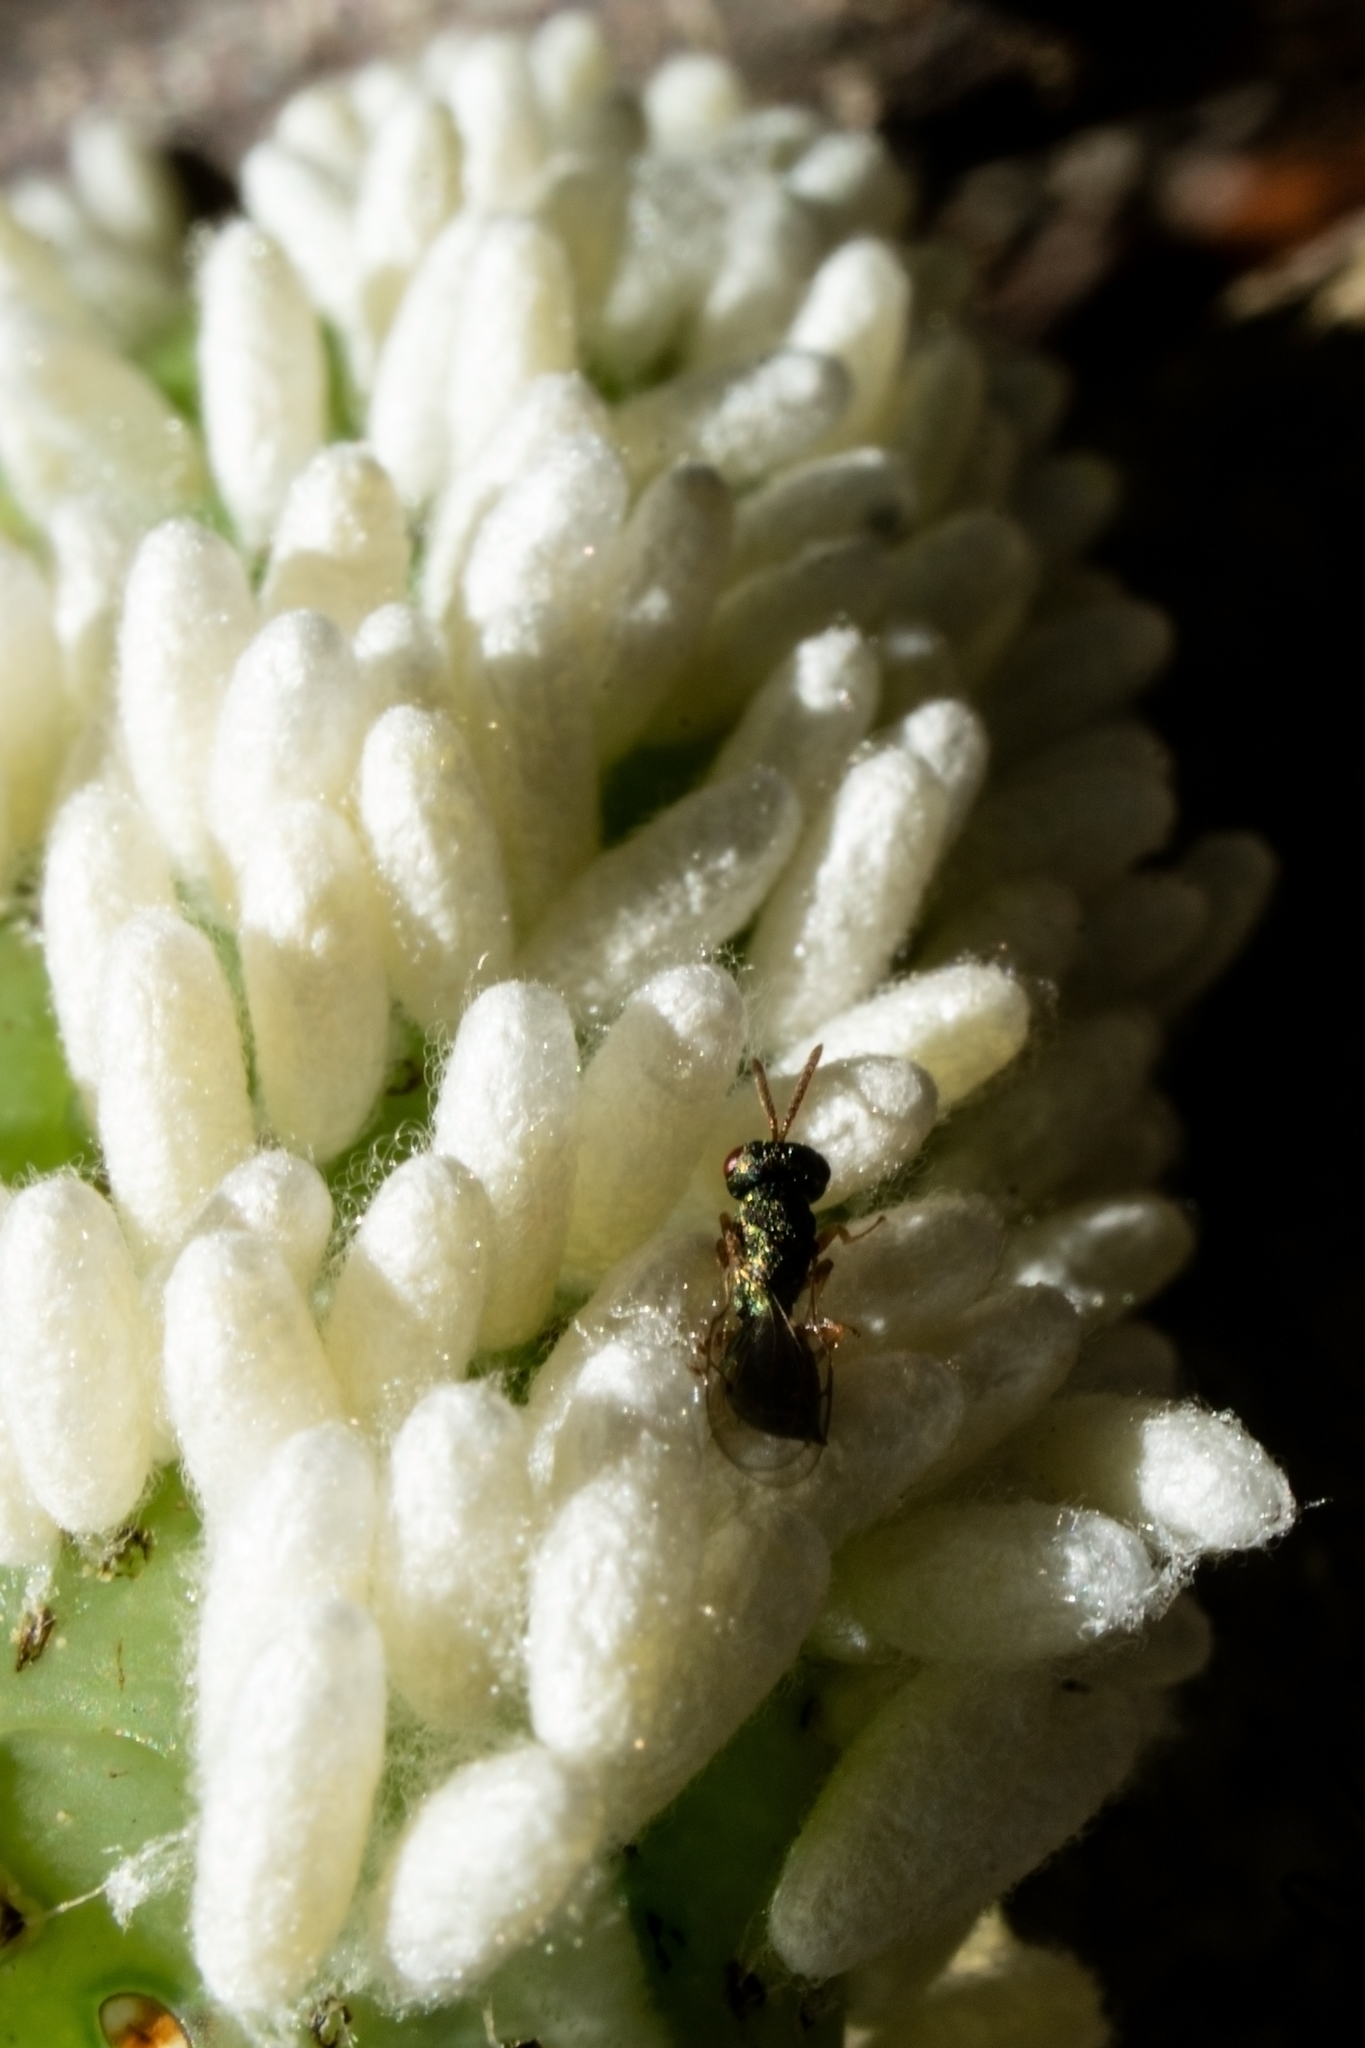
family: Polydnaviriformidae
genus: Bracoviriform
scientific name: Bracoviriform congregatae
